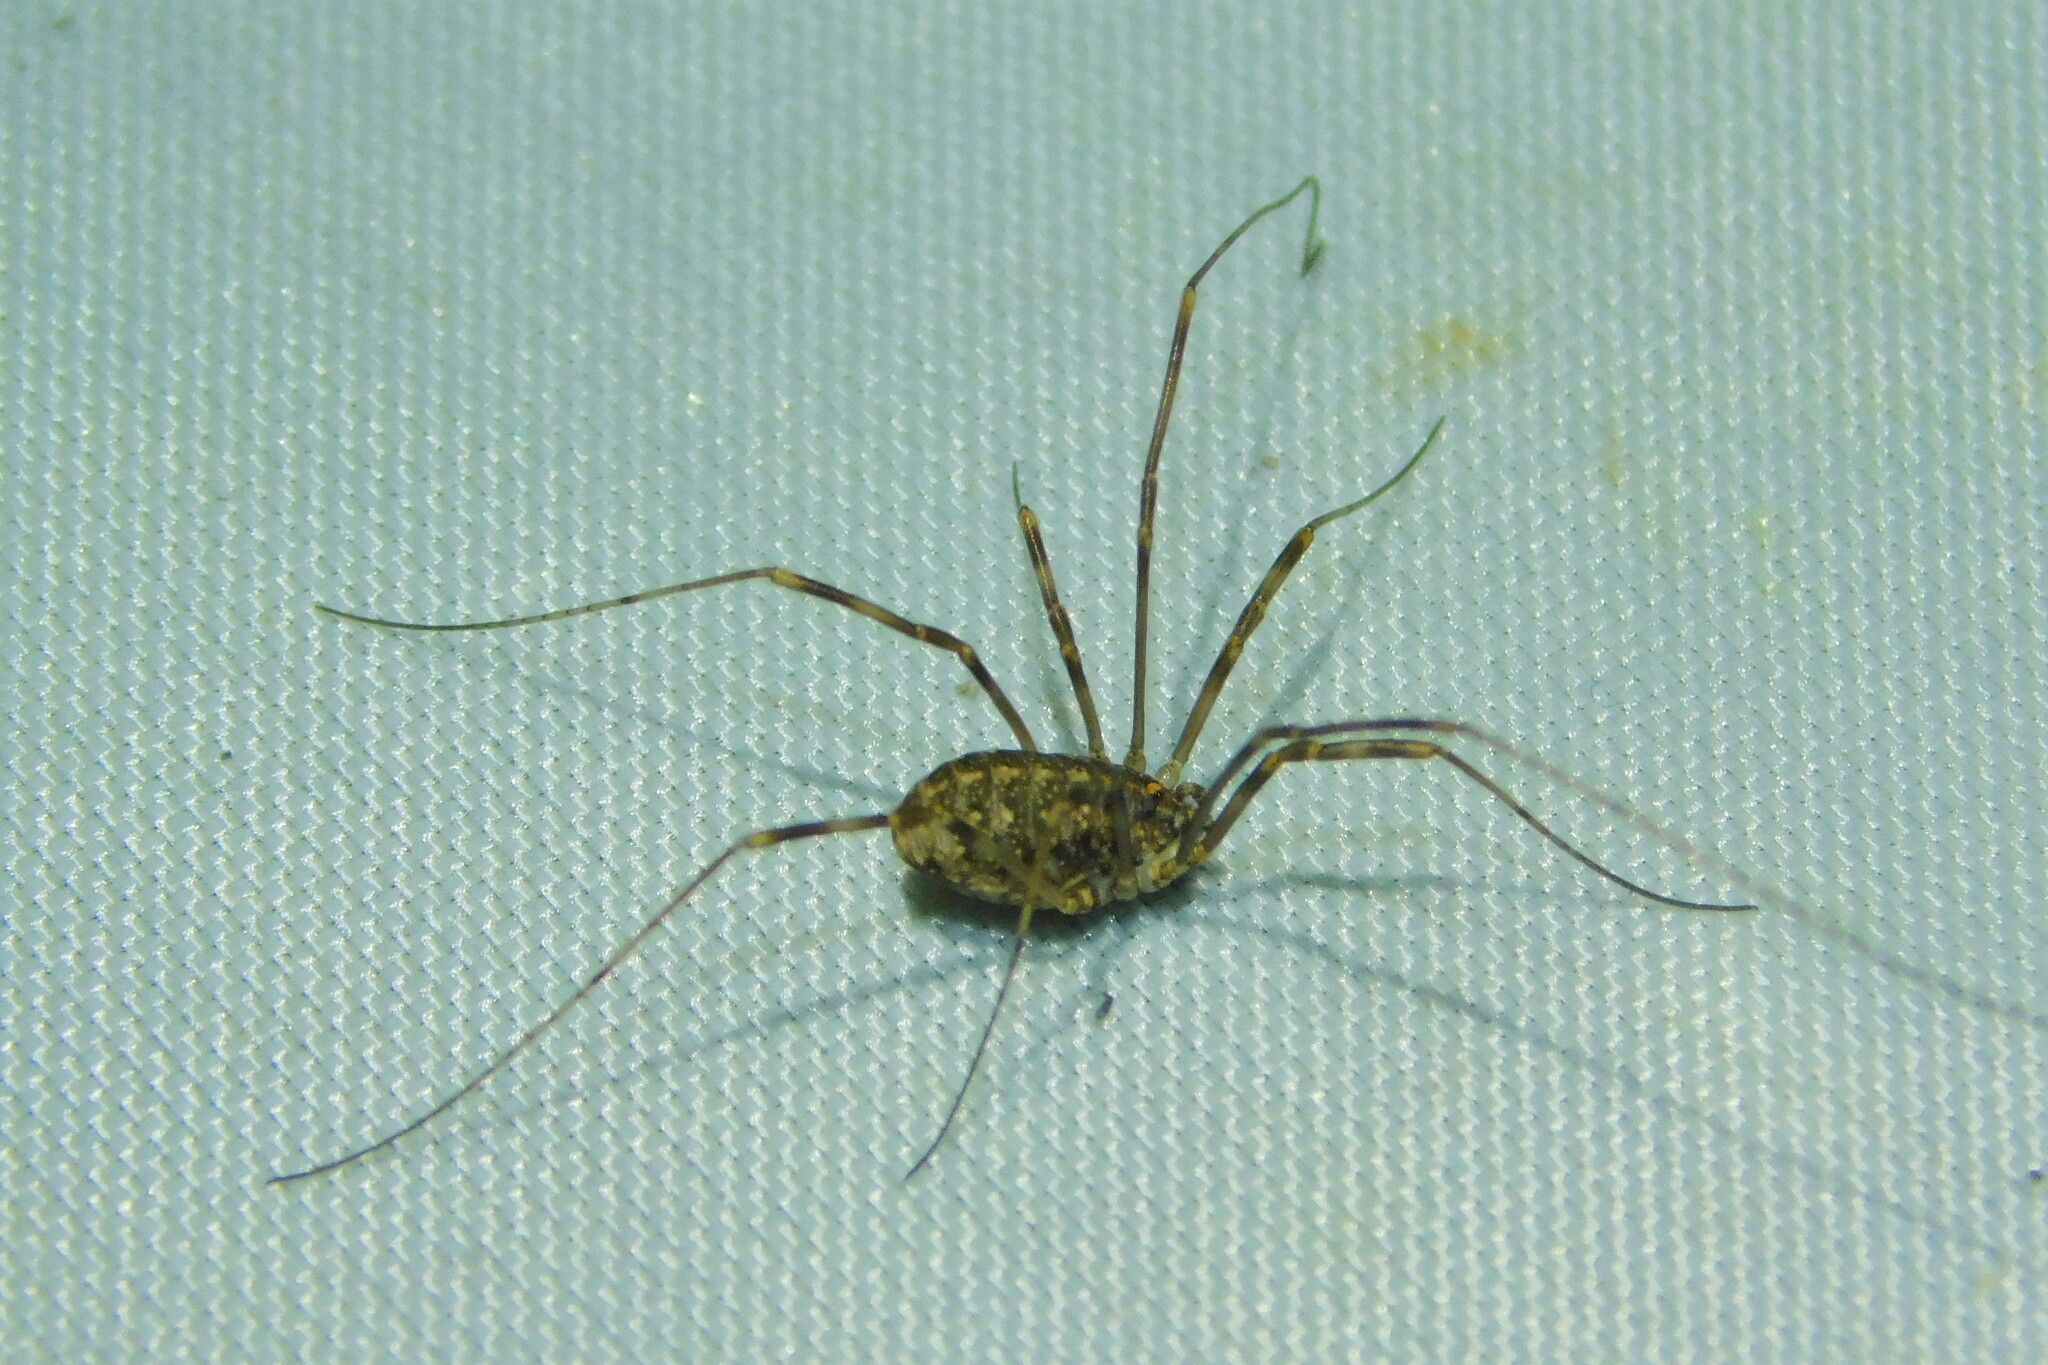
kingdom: Animalia
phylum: Arthropoda
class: Arachnida
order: Opiliones
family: Phalangiidae
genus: Opilio
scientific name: Opilio saxatilis
